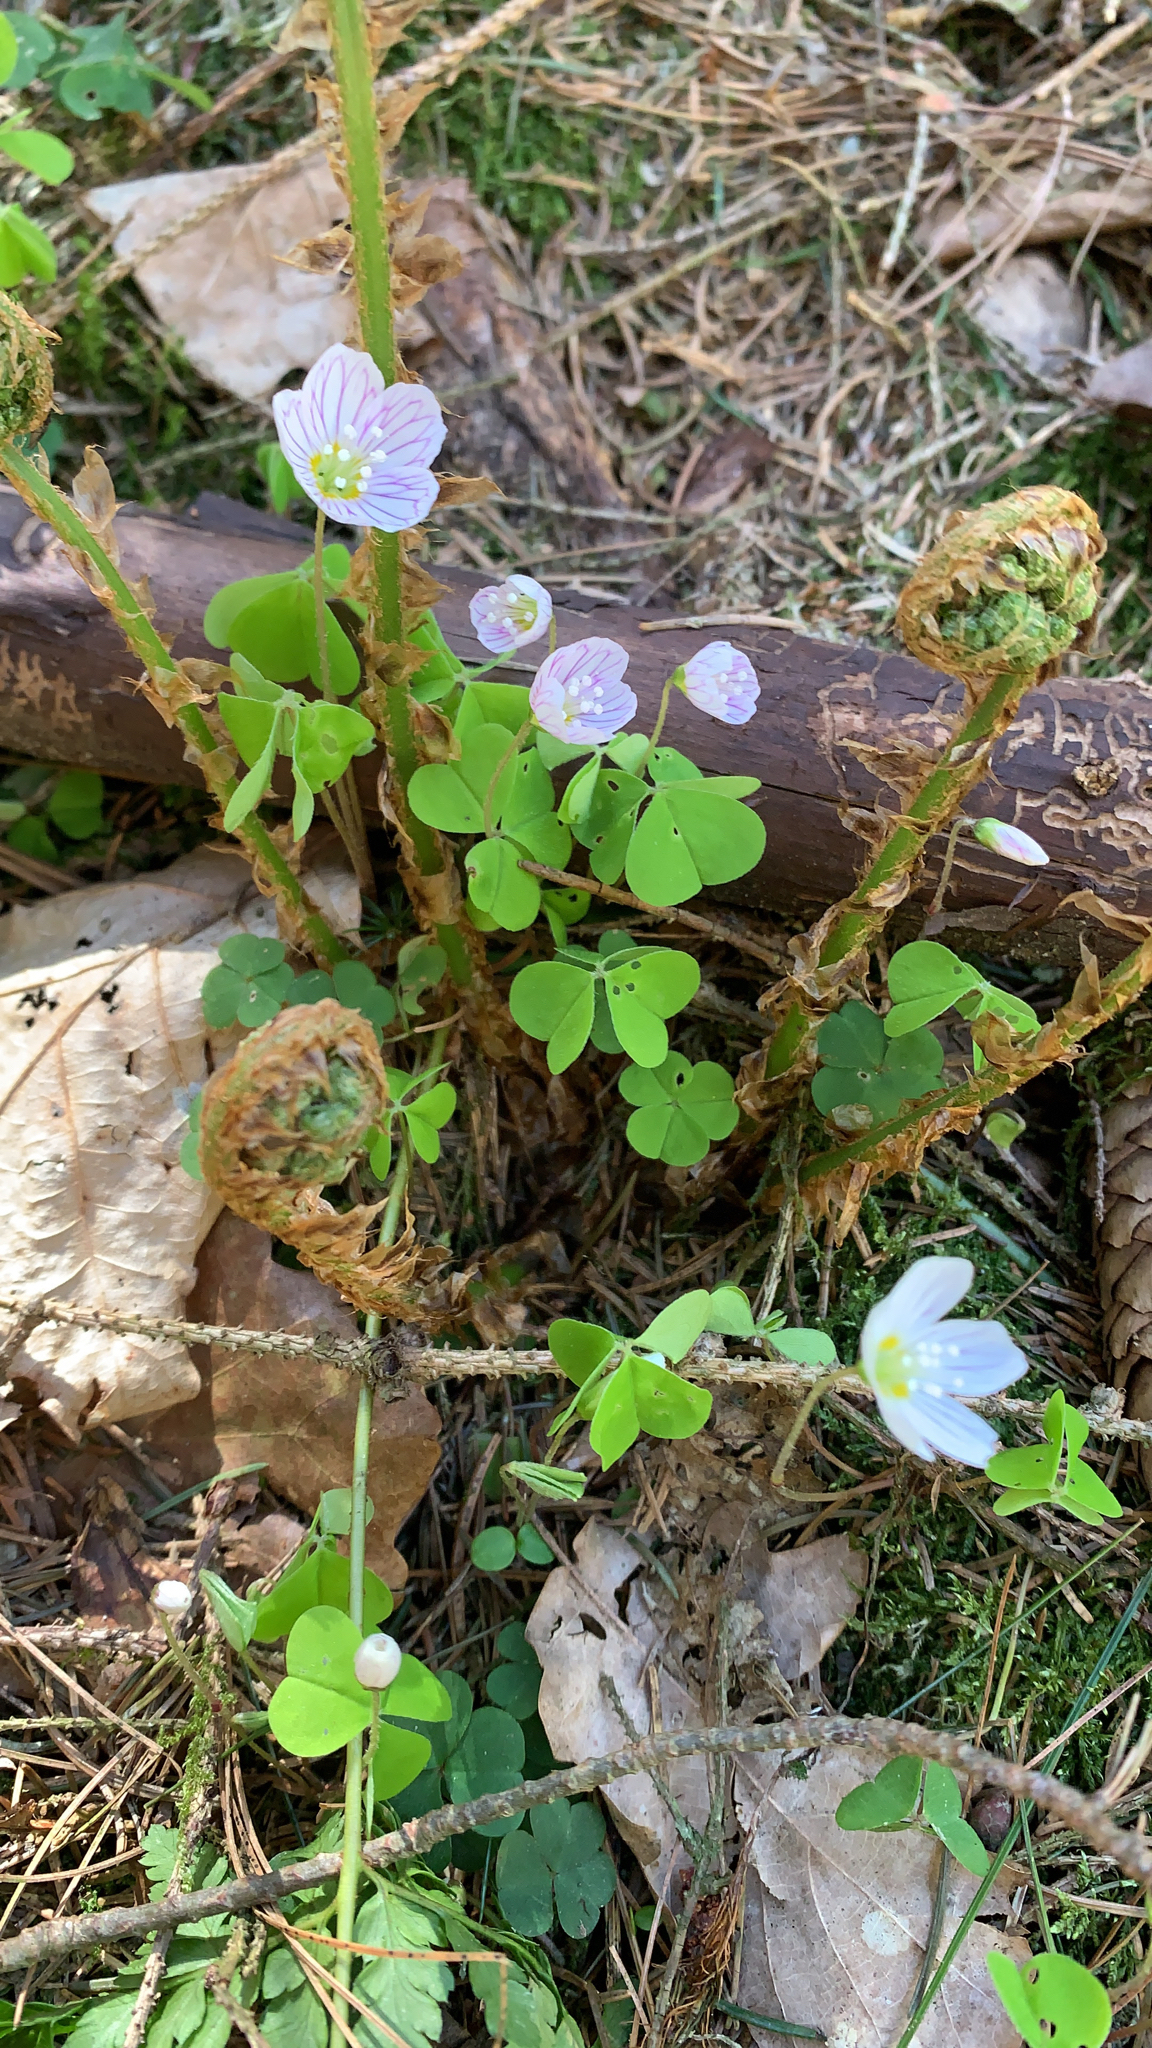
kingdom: Plantae
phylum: Tracheophyta
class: Magnoliopsida
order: Oxalidales
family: Oxalidaceae
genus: Oxalis
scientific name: Oxalis acetosella
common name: Wood-sorrel
